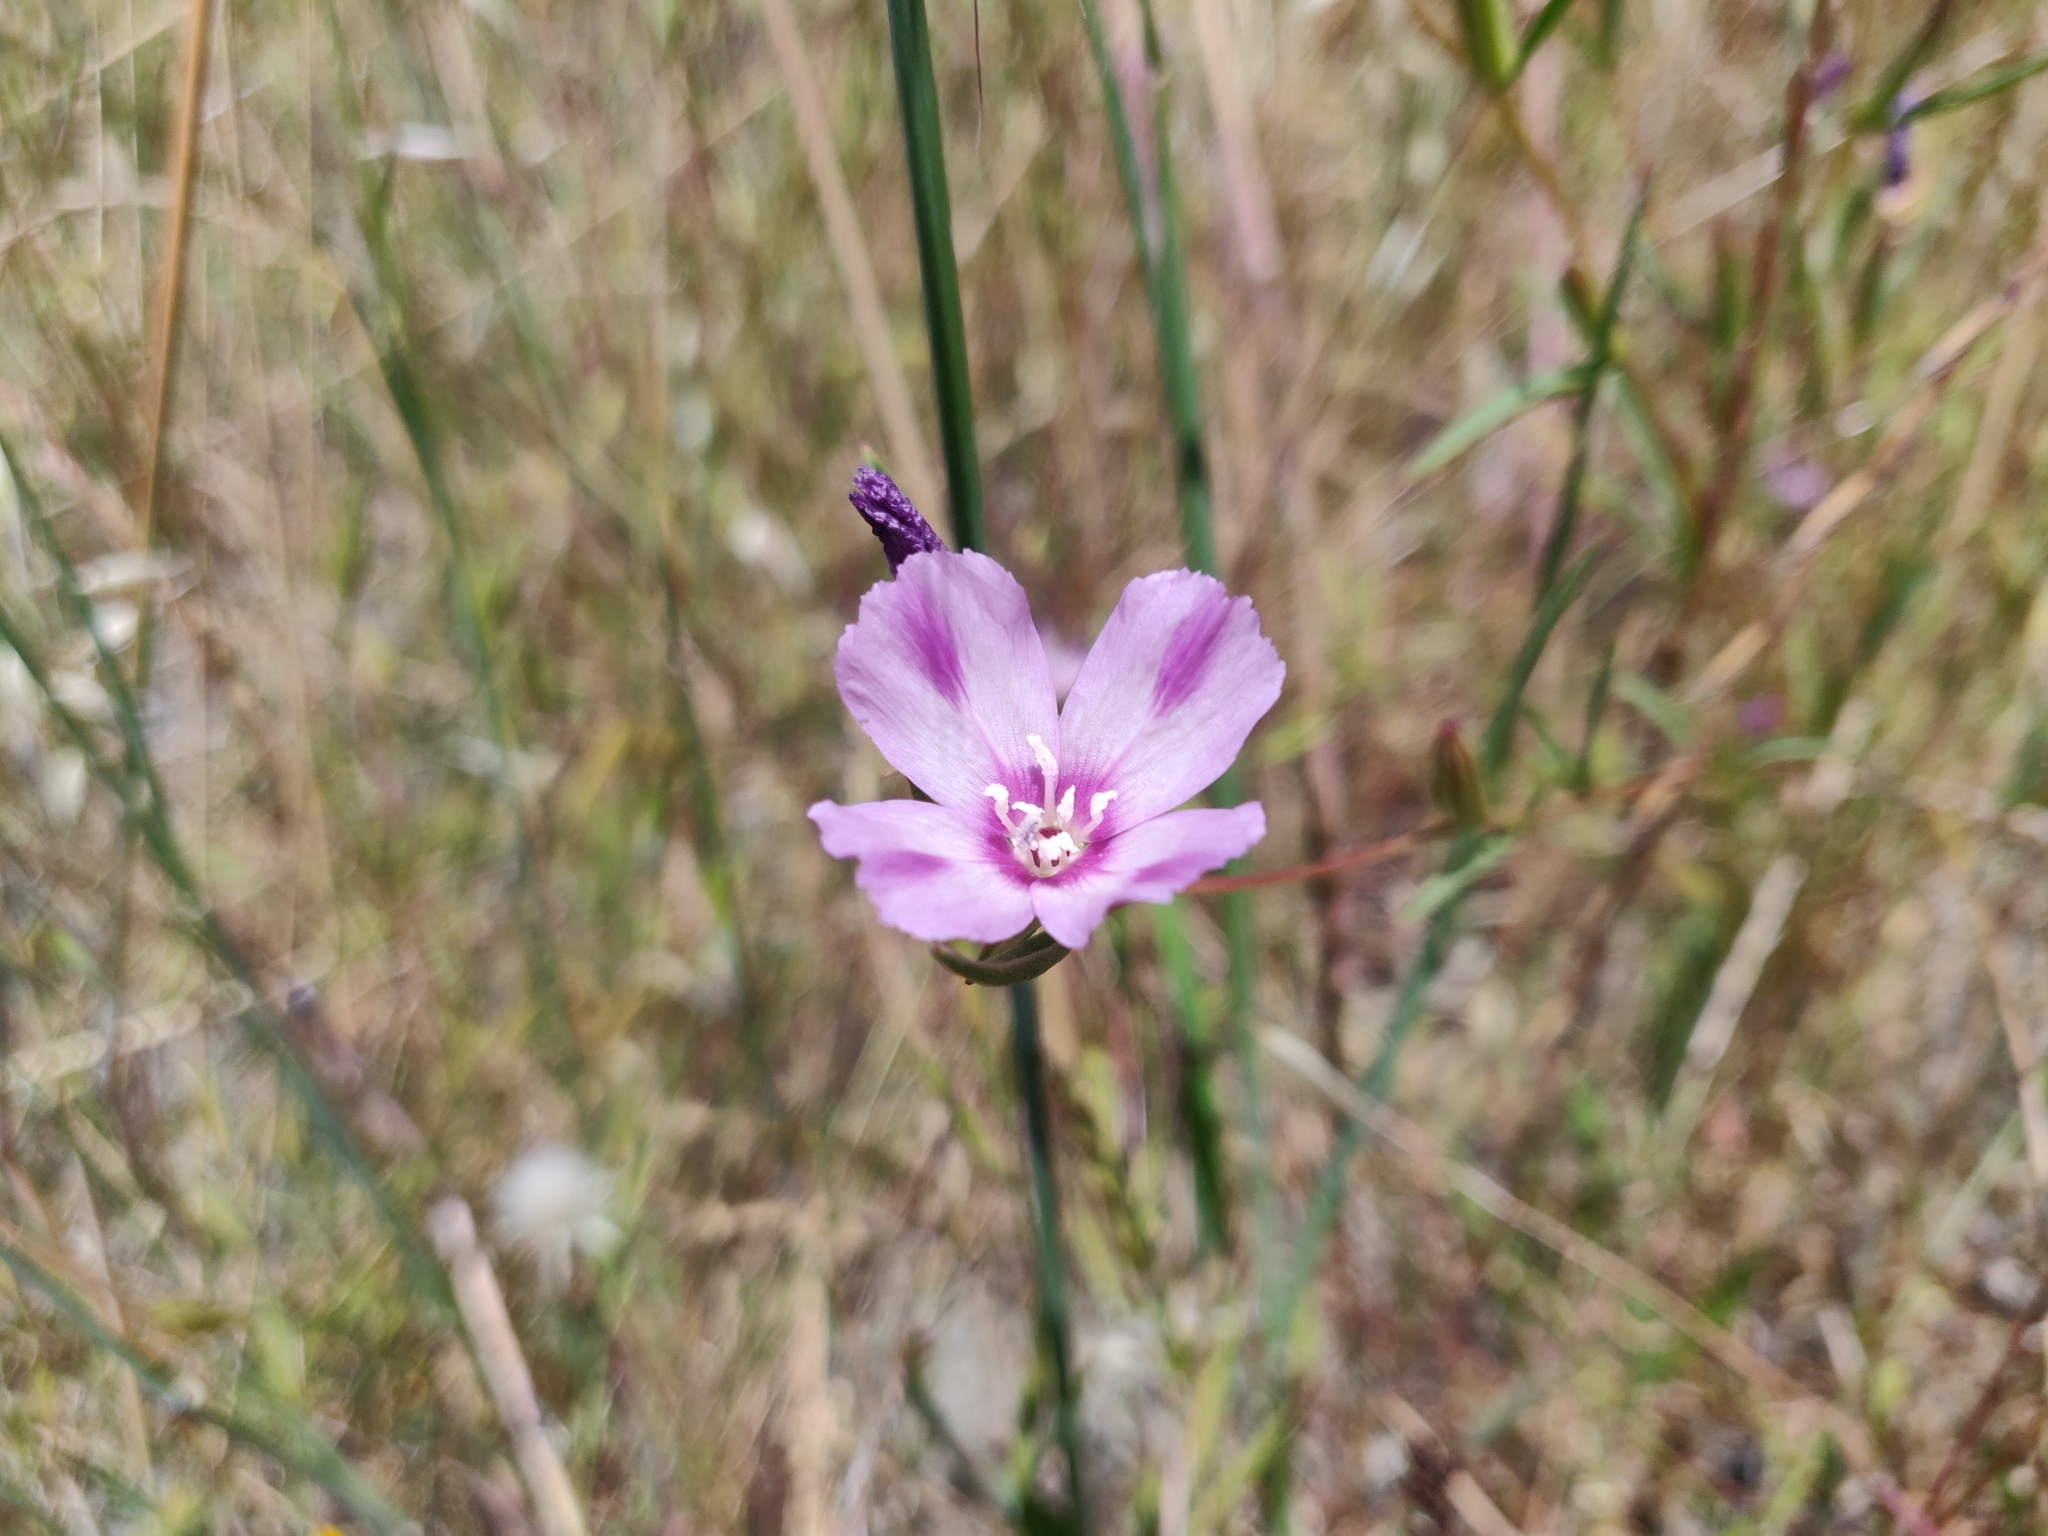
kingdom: Plantae
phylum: Tracheophyta
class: Magnoliopsida
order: Myrtales
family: Onagraceae
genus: Clarkia
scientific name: Clarkia purpurea
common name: Purple clarkia
